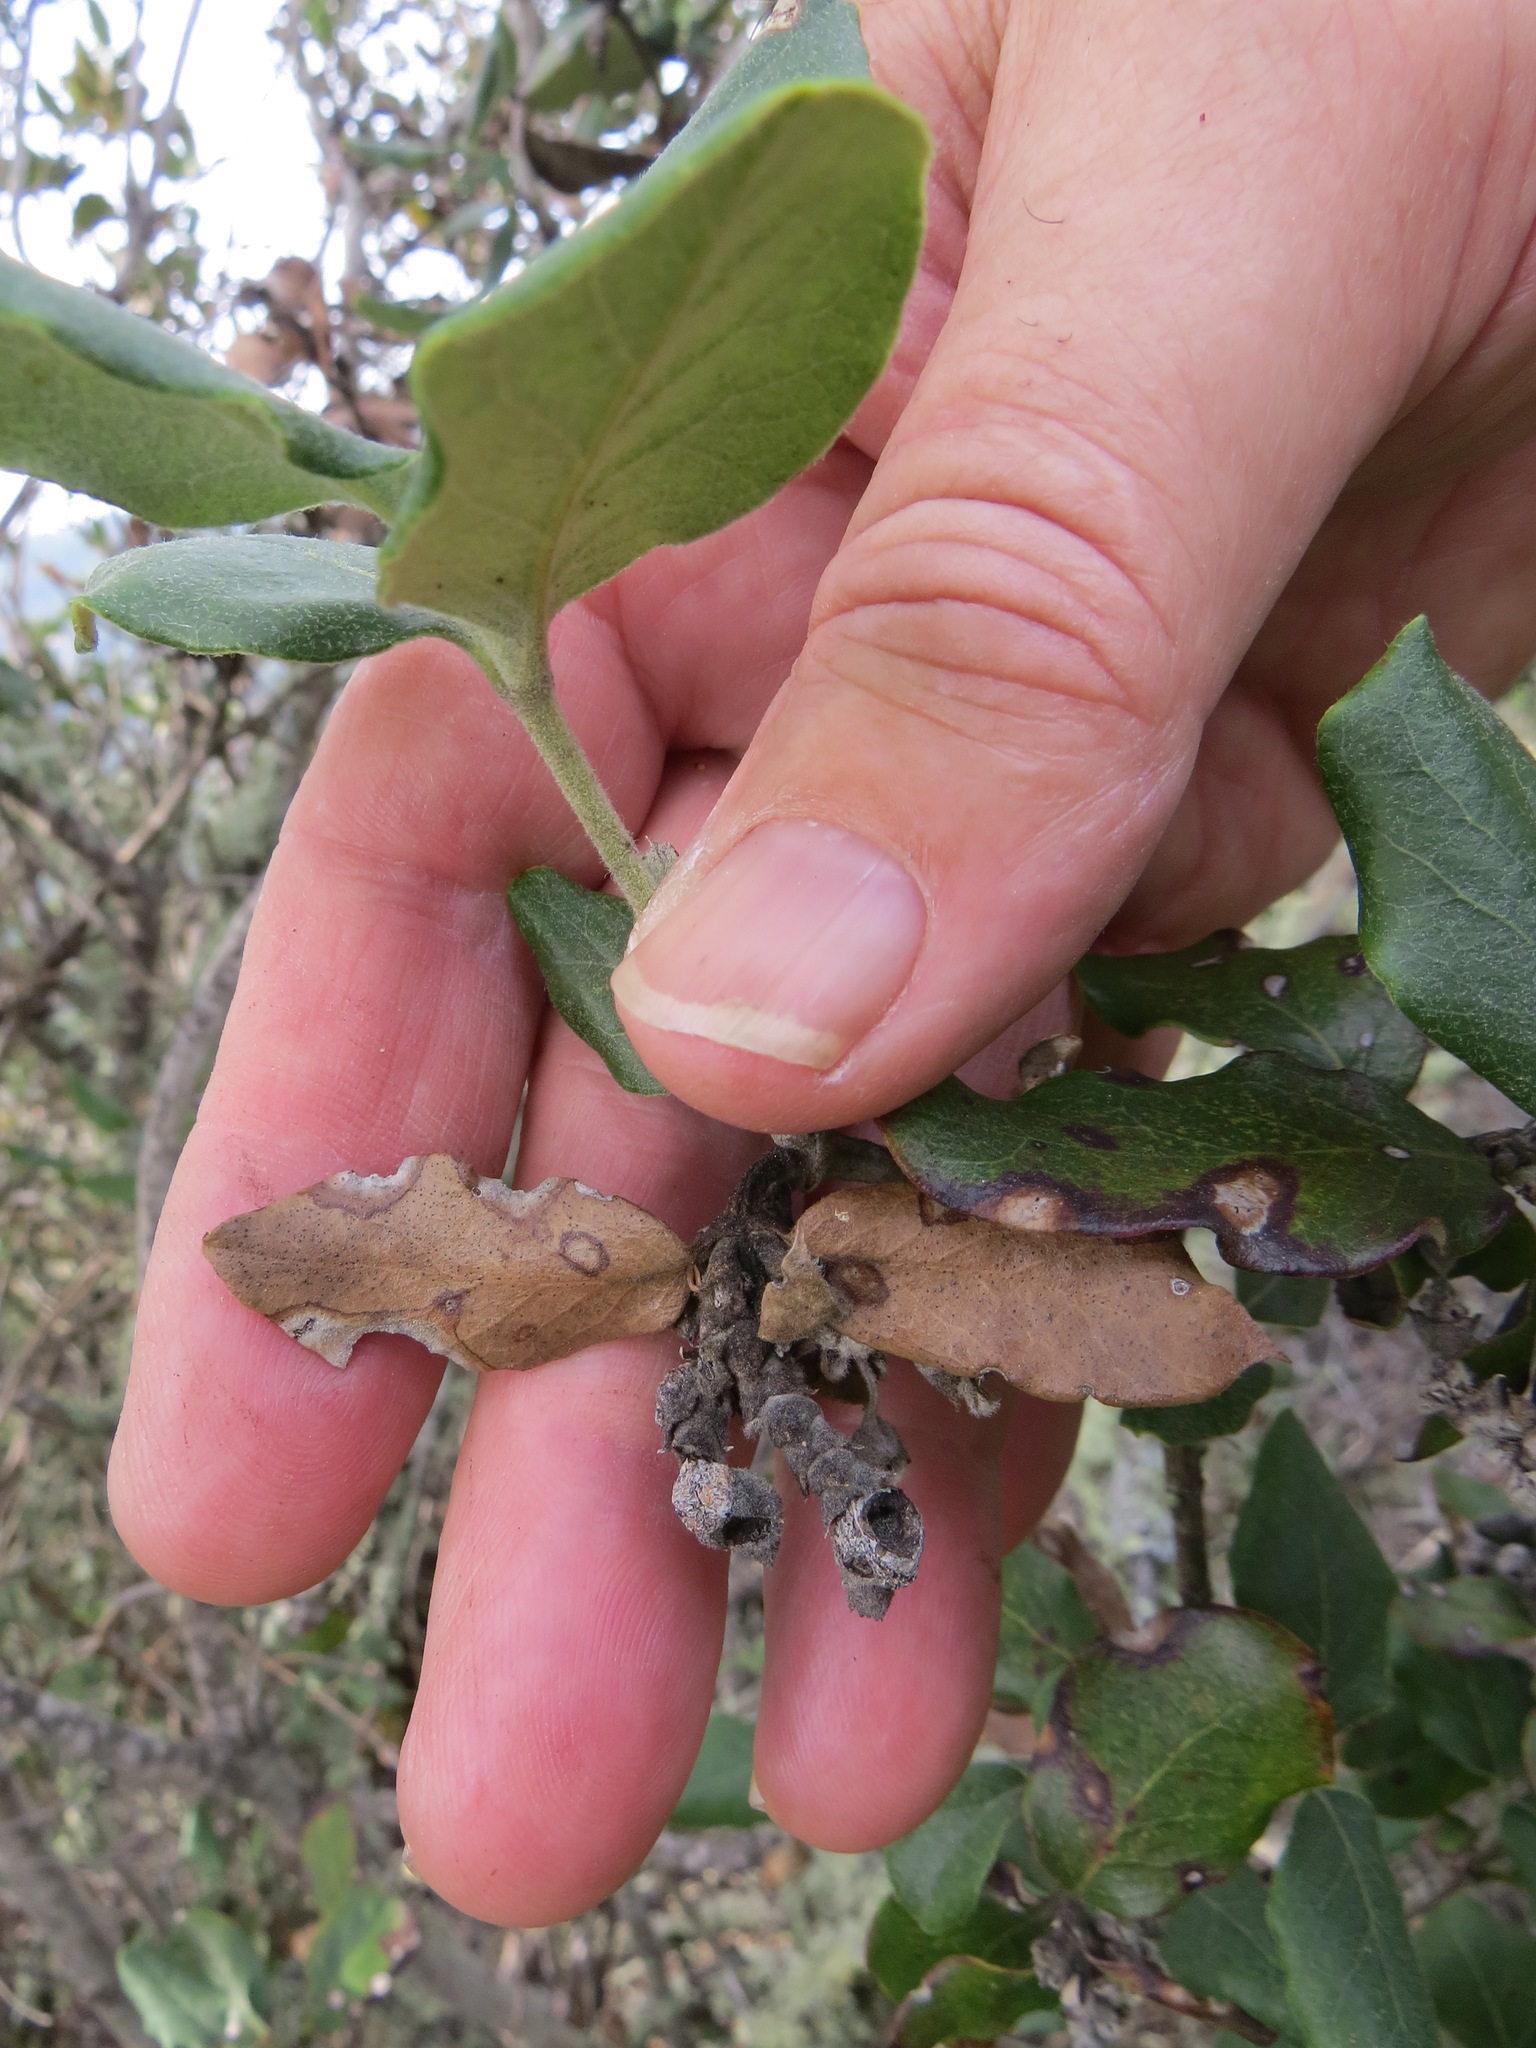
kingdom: Animalia
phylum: Arthropoda
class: Insecta
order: Diptera
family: Cecidomyiidae
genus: Asphondylia
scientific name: Asphondylia garryae
